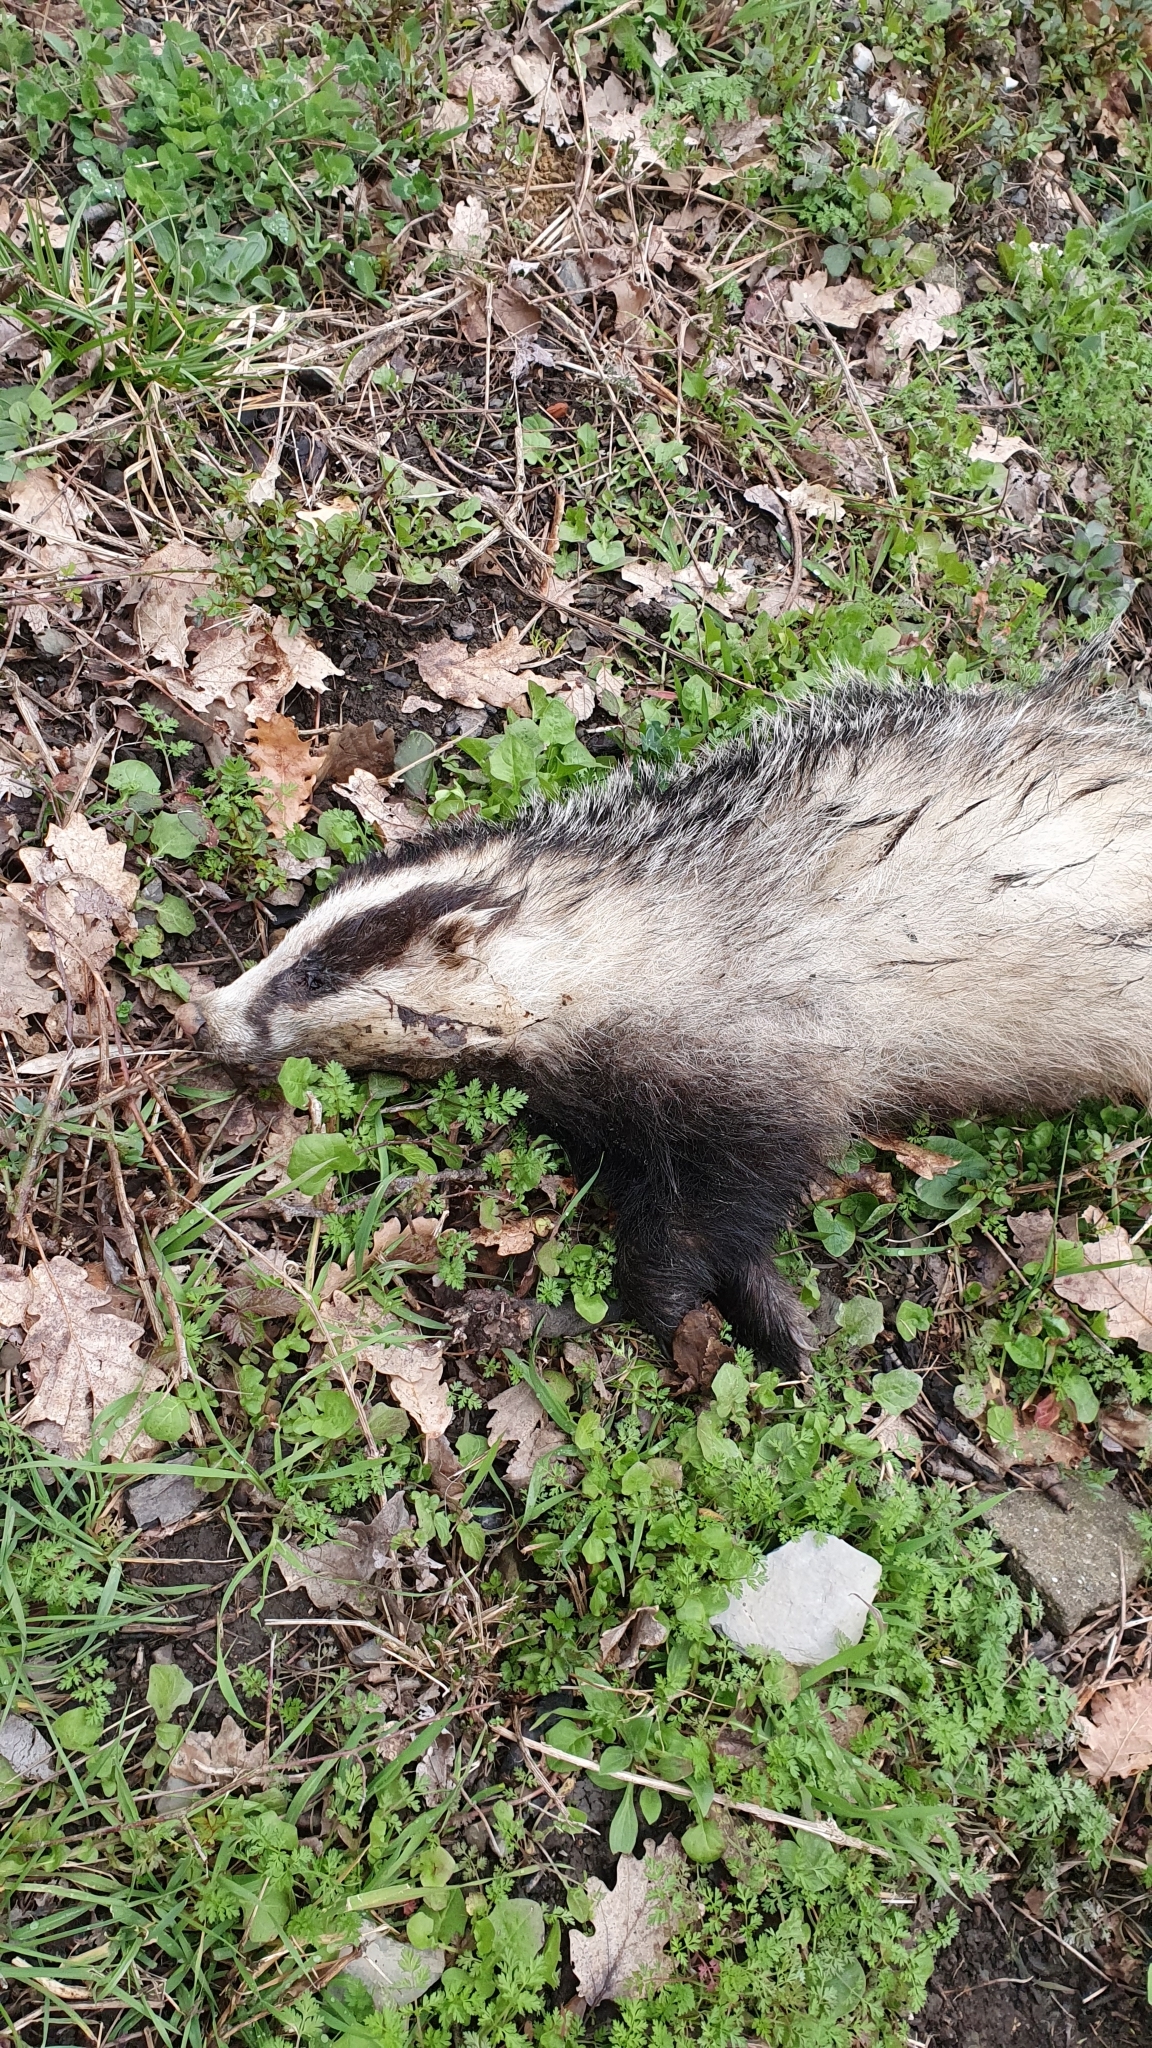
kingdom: Animalia
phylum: Chordata
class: Mammalia
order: Carnivora
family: Mustelidae
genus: Meles
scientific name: Meles meles
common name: Eurasian badger
